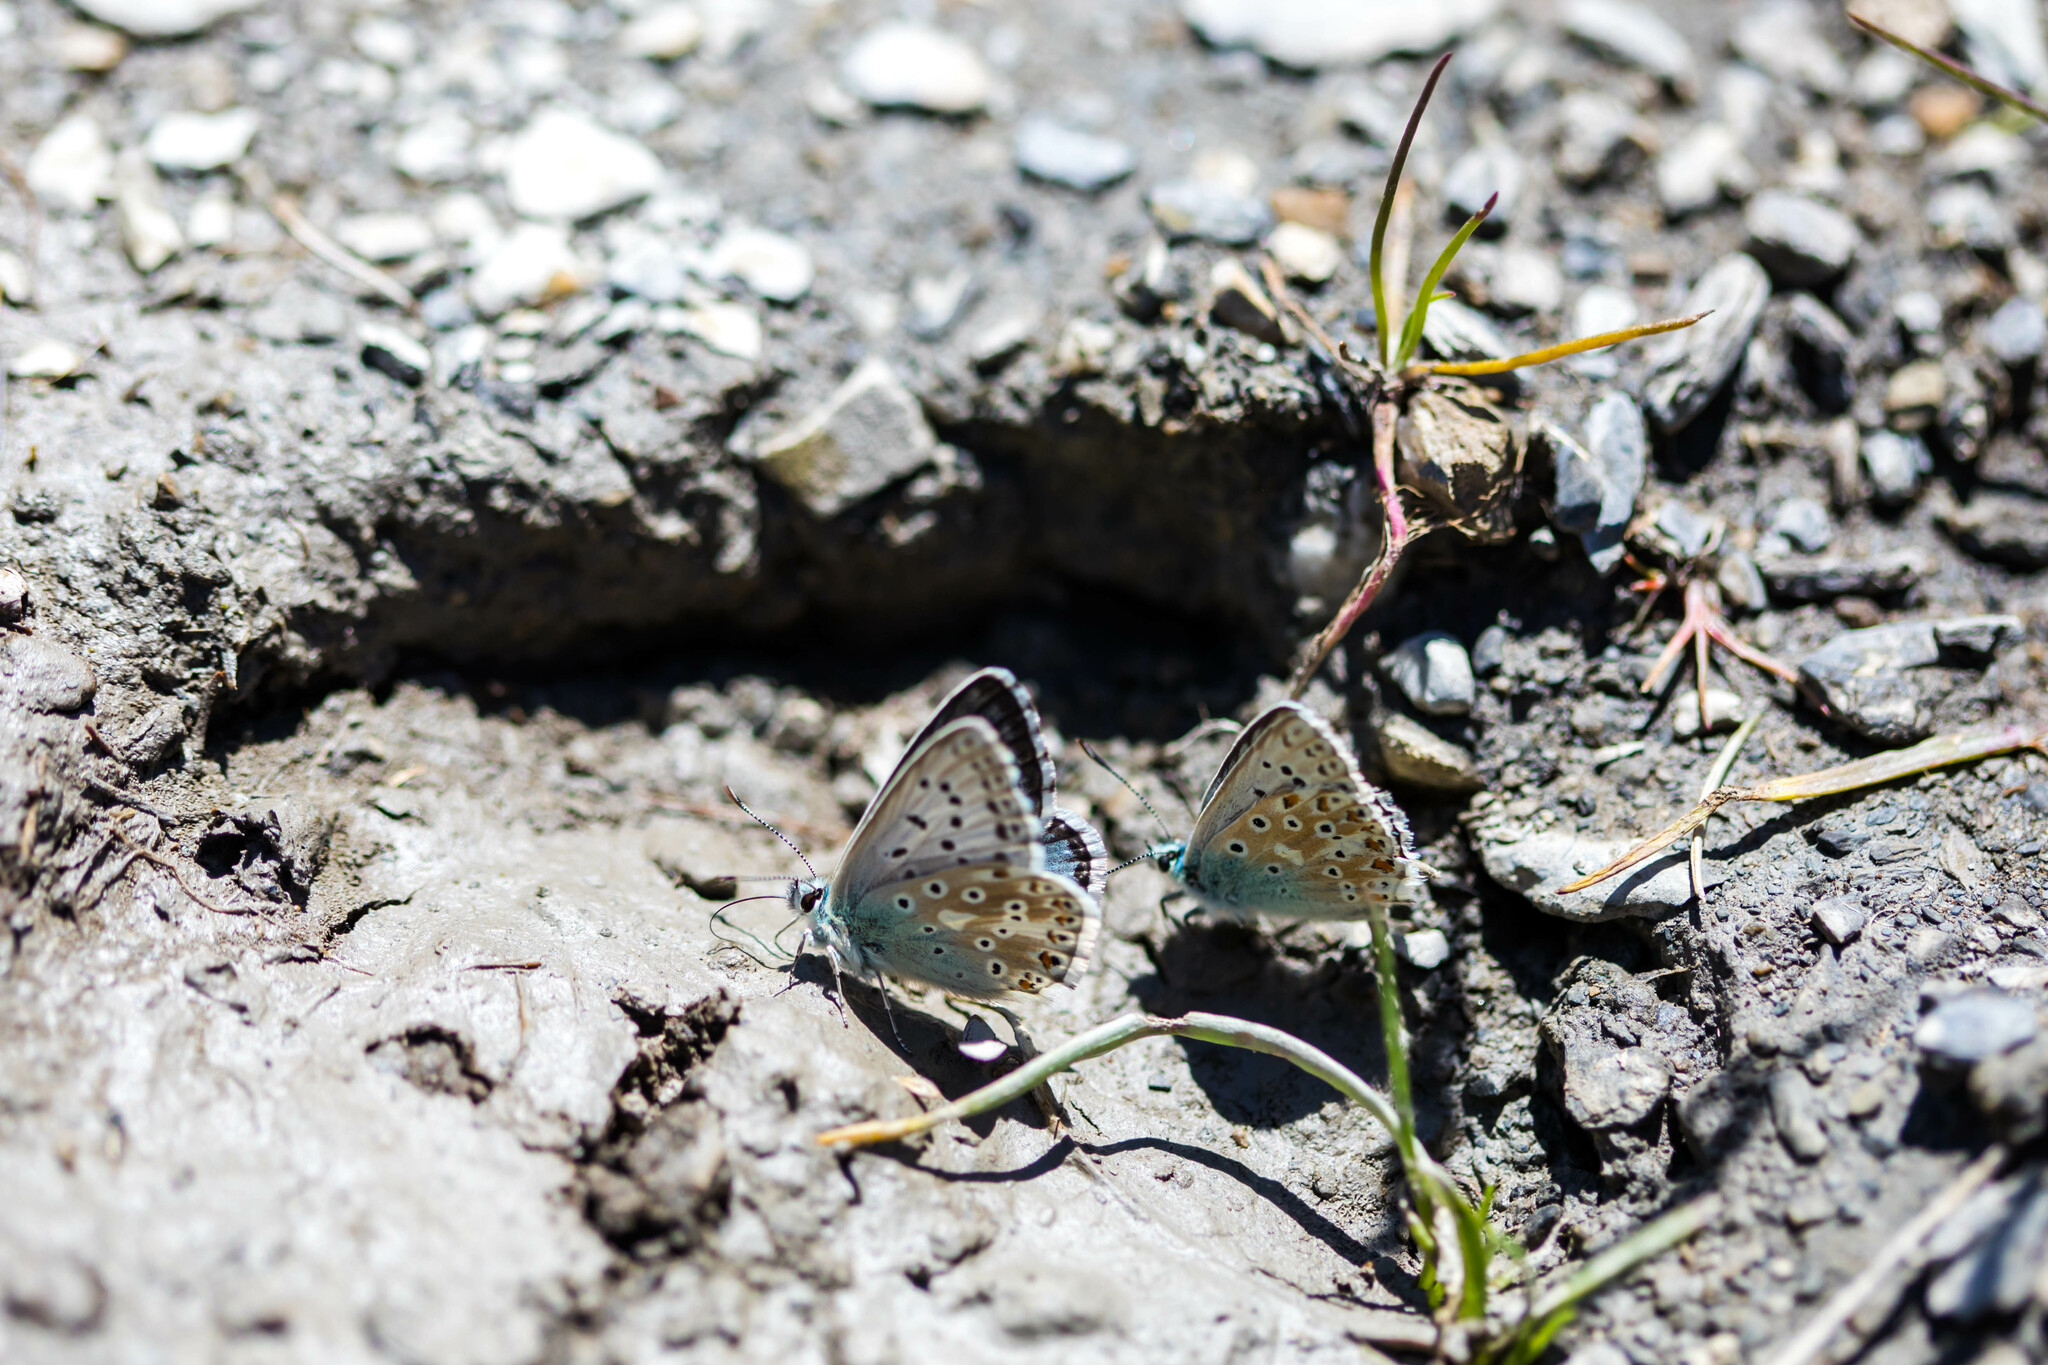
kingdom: Animalia
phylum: Arthropoda
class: Insecta
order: Lepidoptera
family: Lycaenidae
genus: Lysandra
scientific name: Lysandra coridon
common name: Chalkhill blue
